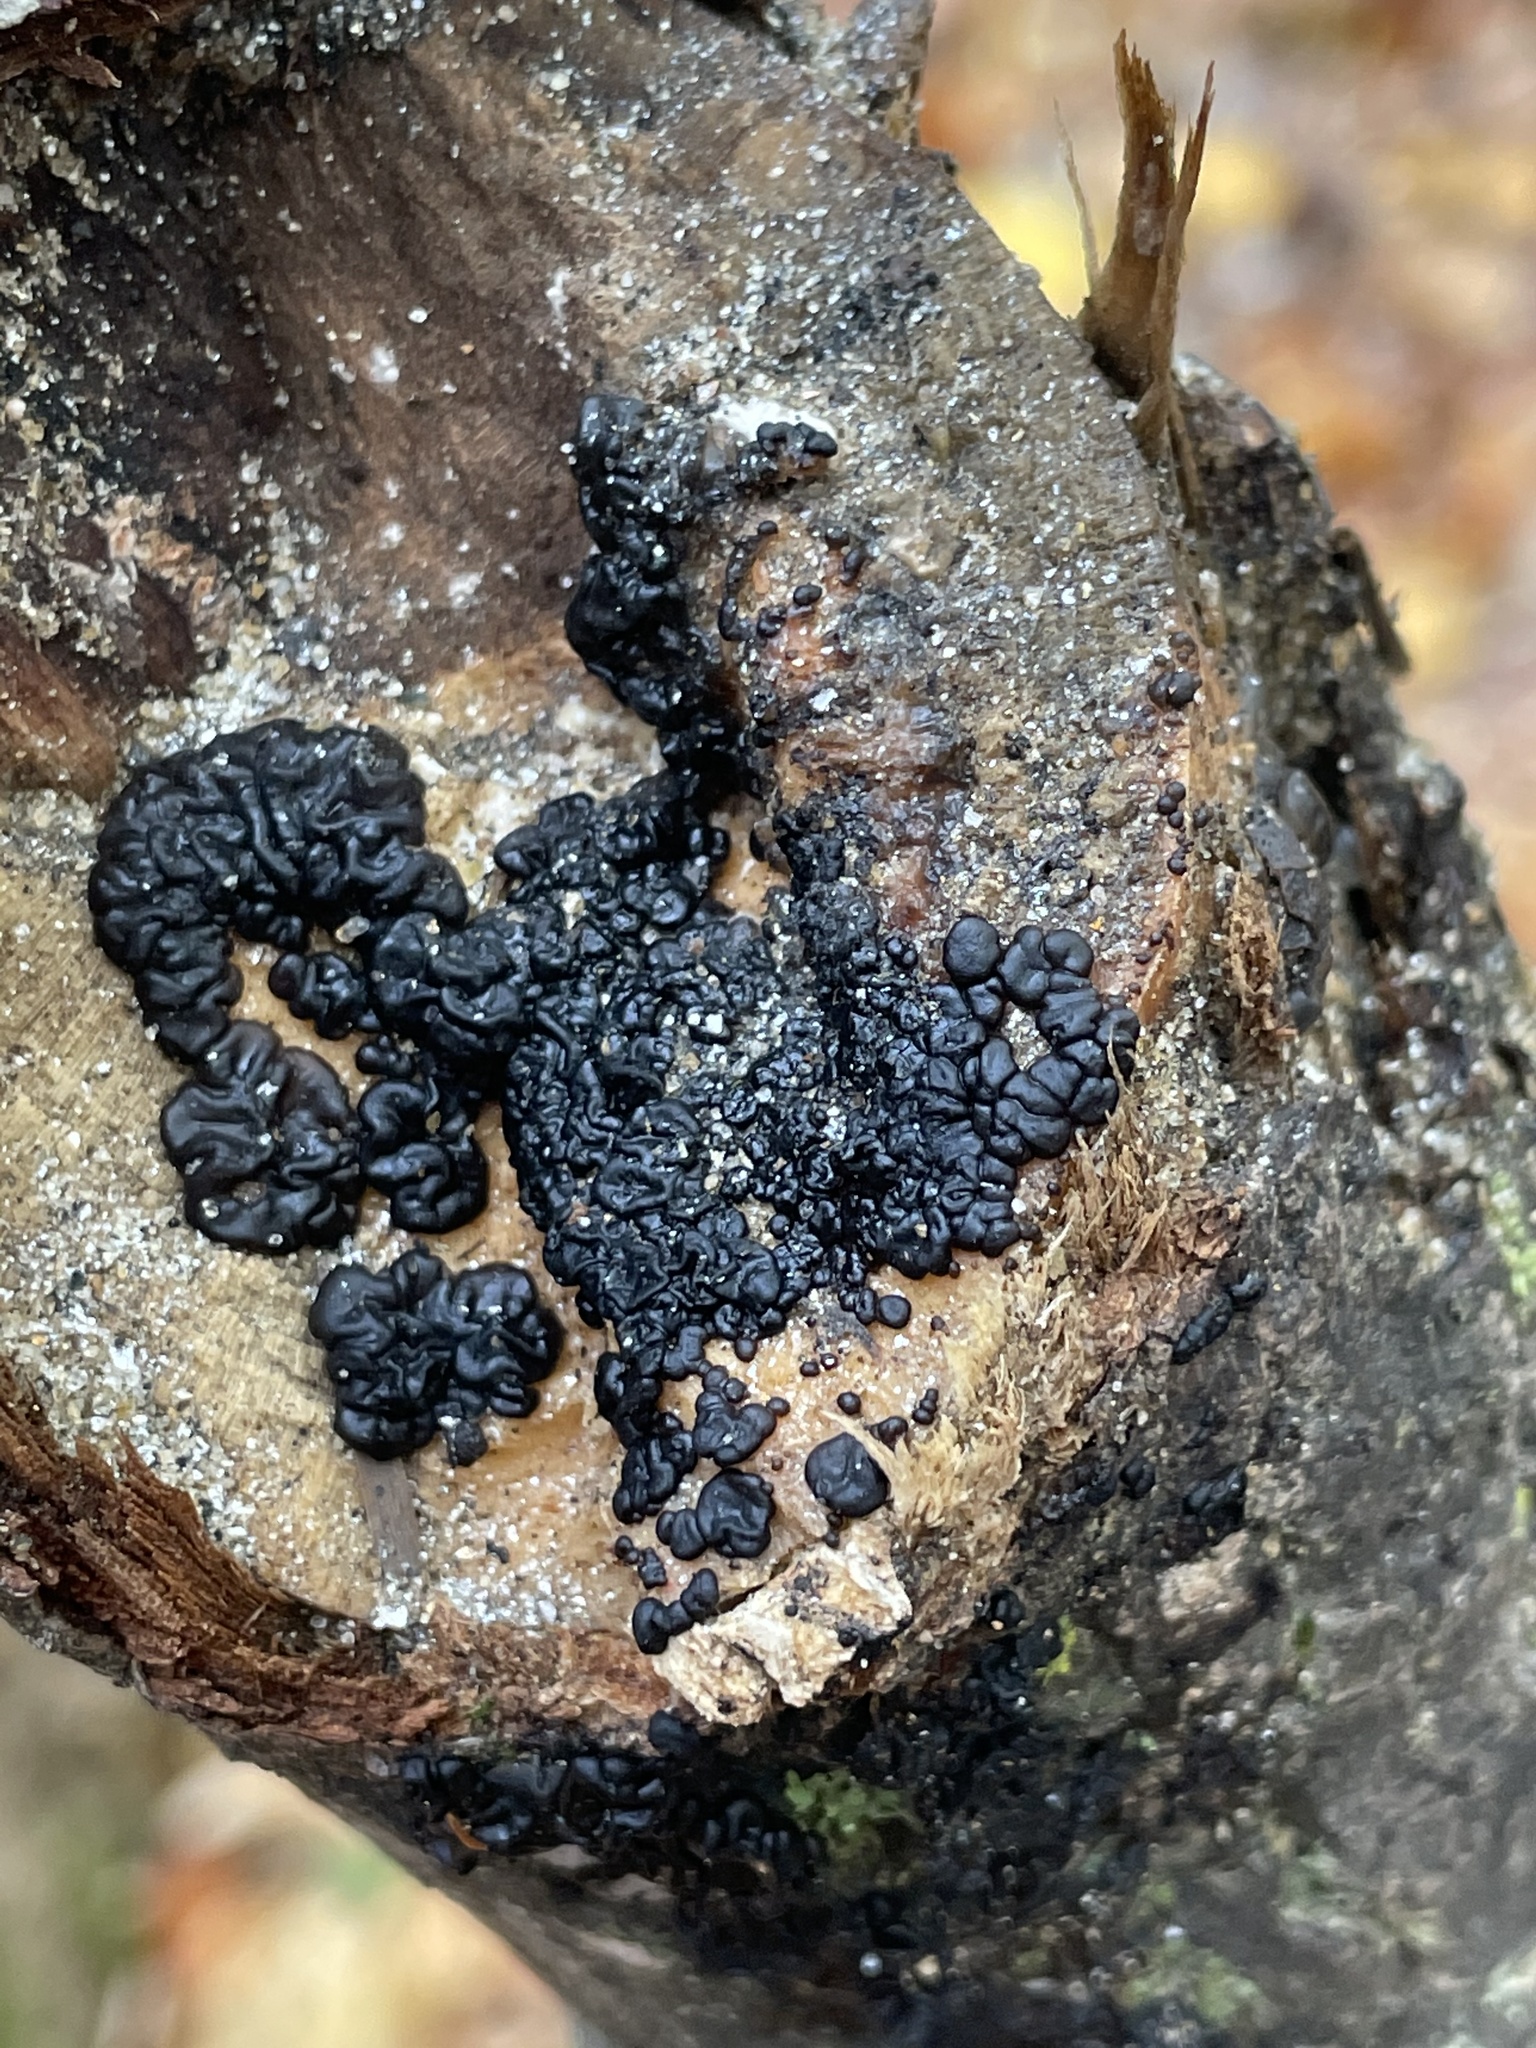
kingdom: Fungi
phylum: Basidiomycota
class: Agaricomycetes
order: Auriculariales
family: Auriculariaceae
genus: Exidia
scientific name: Exidia glandulosa
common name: Witches' butter
